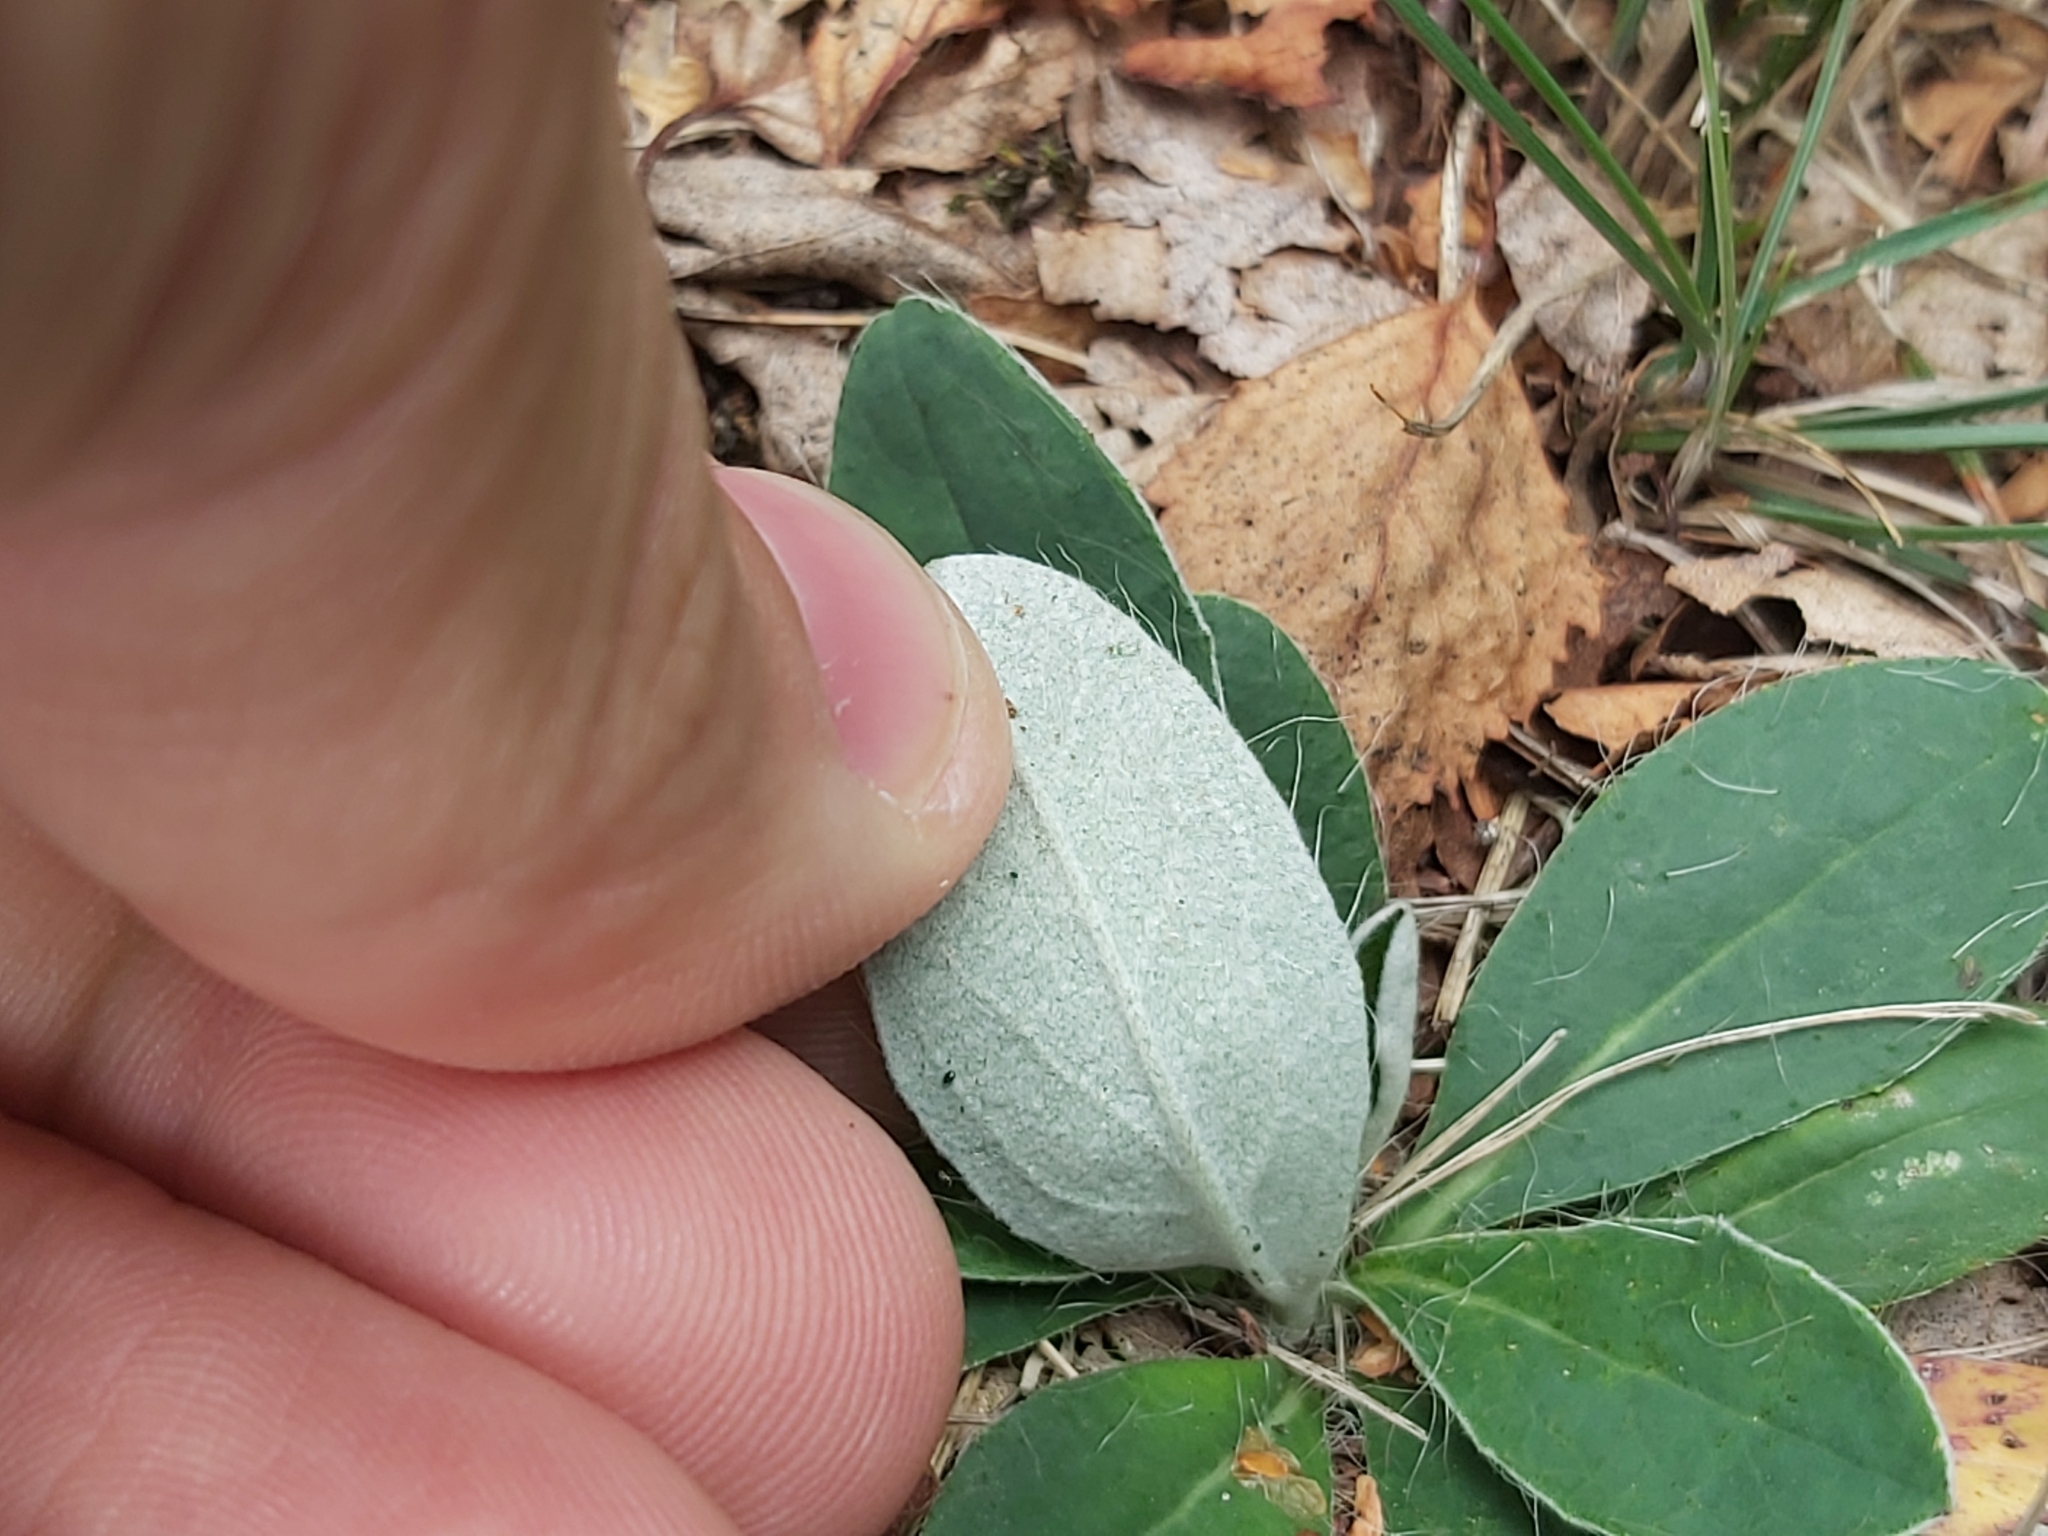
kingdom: Plantae
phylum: Tracheophyta
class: Magnoliopsida
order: Asterales
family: Asteraceae
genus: Pilosella
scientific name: Pilosella officinarum
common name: Mouse-ear hawkweed
